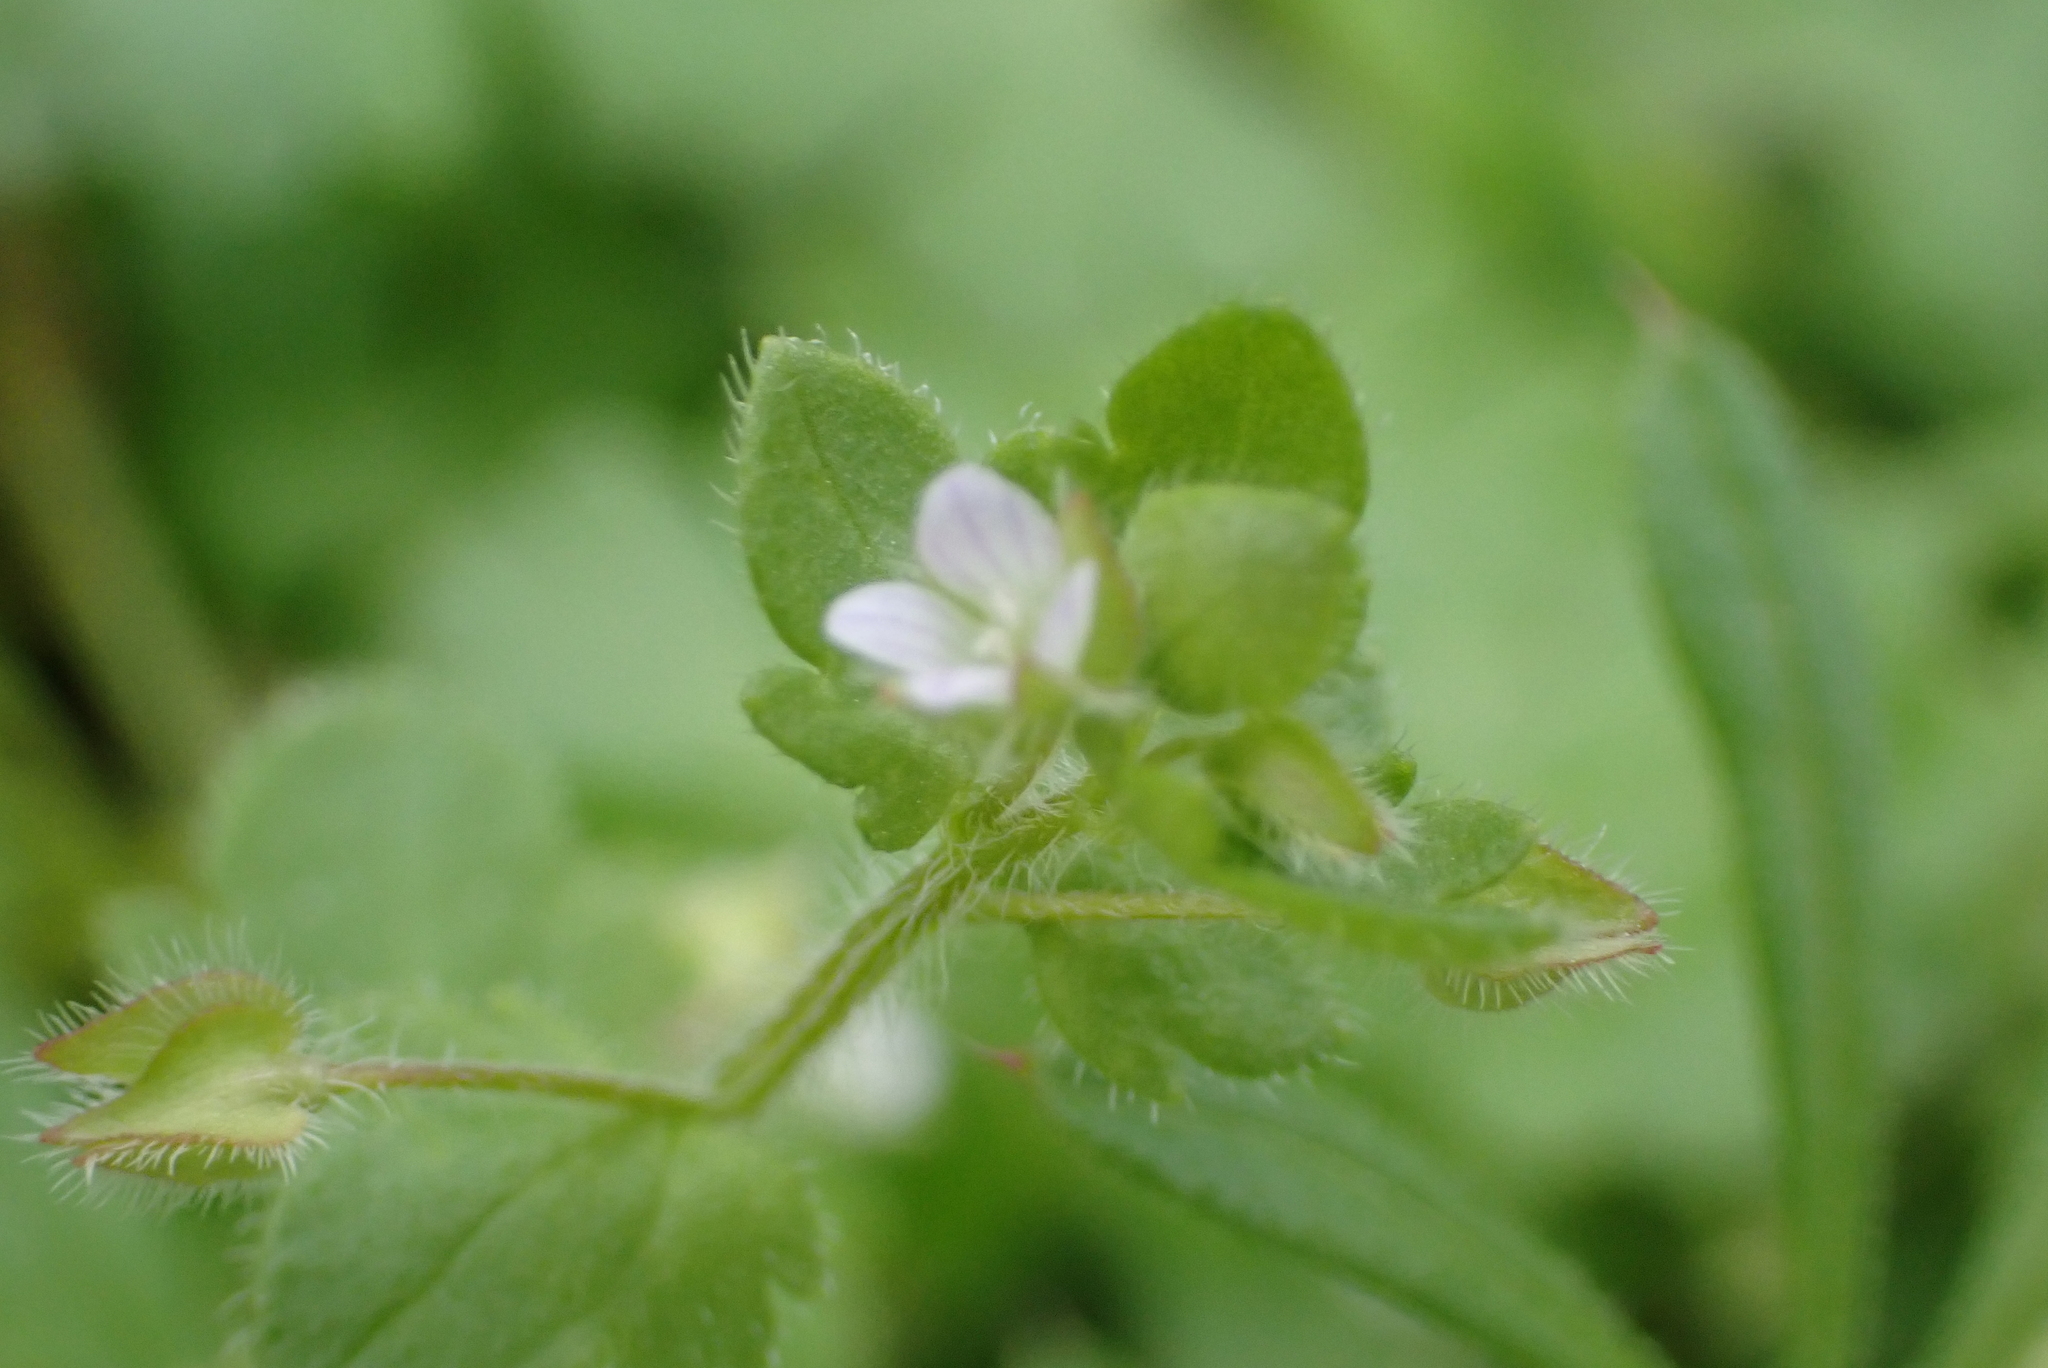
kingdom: Plantae
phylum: Tracheophyta
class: Magnoliopsida
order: Lamiales
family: Plantaginaceae
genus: Veronica
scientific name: Veronica sublobata
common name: False ivy-leaved speedwell
